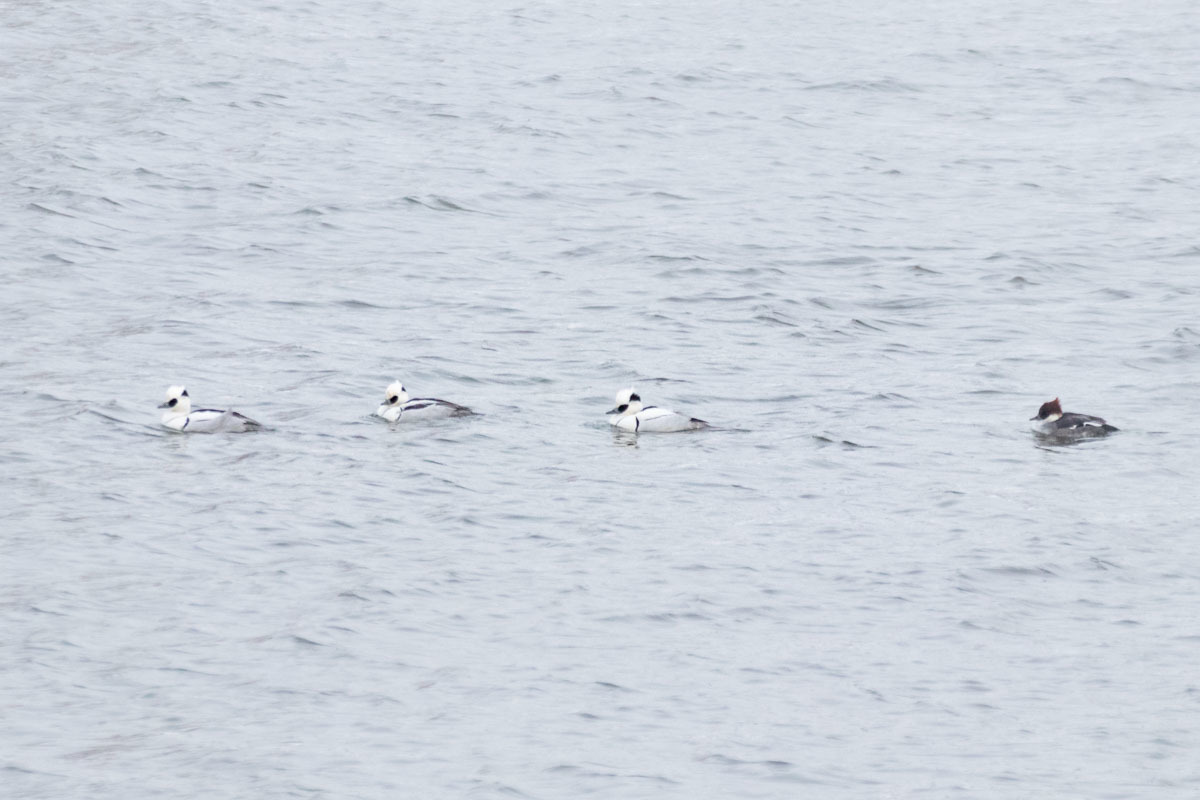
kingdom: Animalia
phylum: Chordata
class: Aves
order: Anseriformes
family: Anatidae
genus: Mergellus
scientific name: Mergellus albellus
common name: Smew
